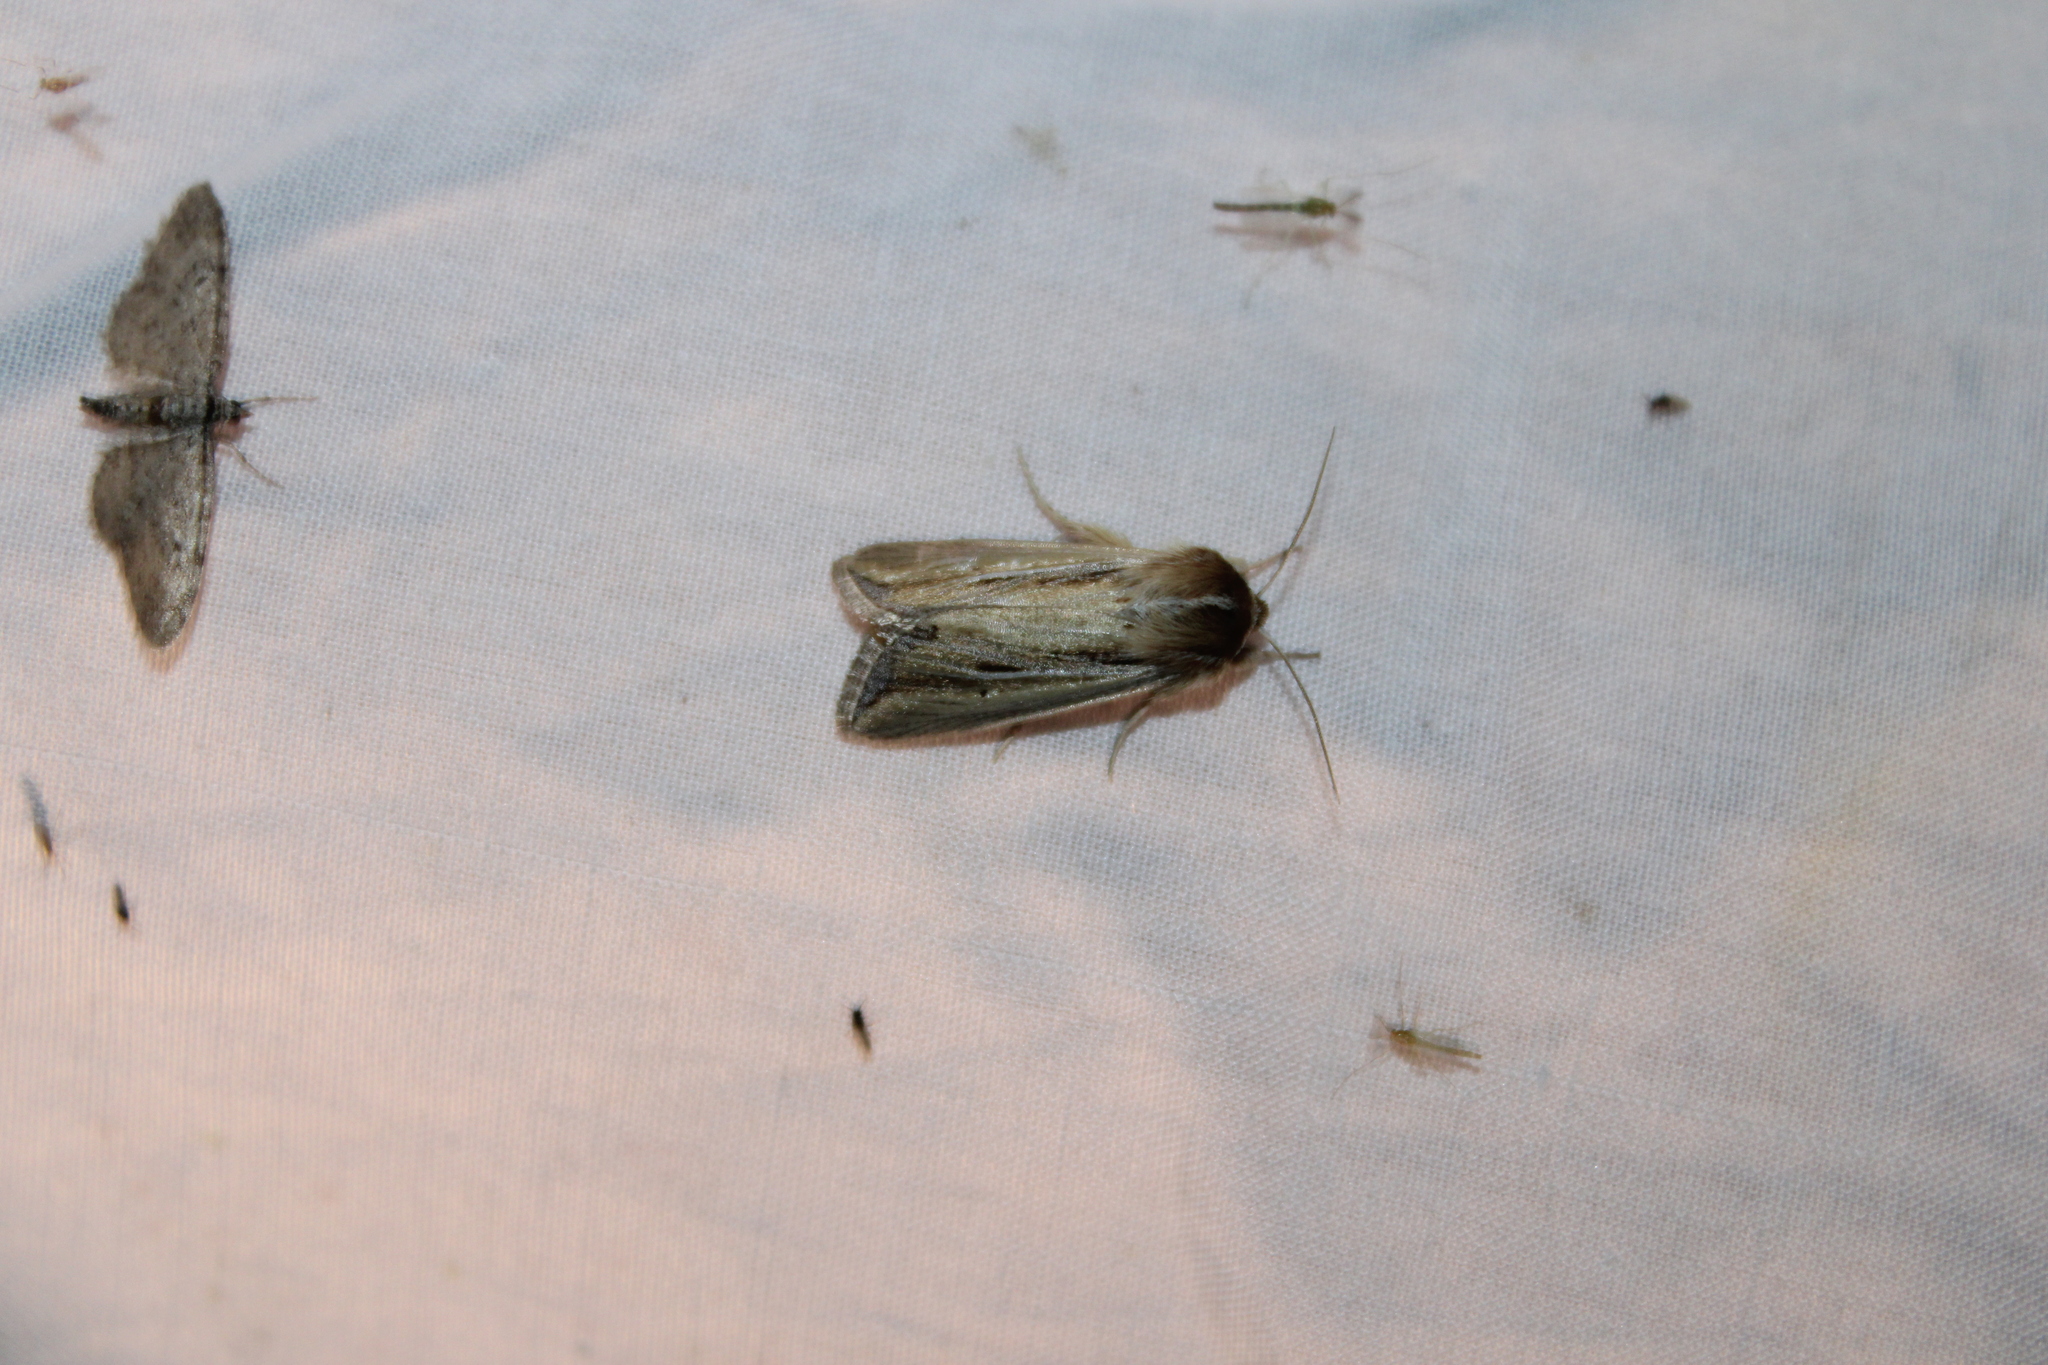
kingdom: Animalia
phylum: Arthropoda
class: Insecta
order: Lepidoptera
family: Noctuidae
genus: Dargida
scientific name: Dargida diffusa
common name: Wheat head armyworm
